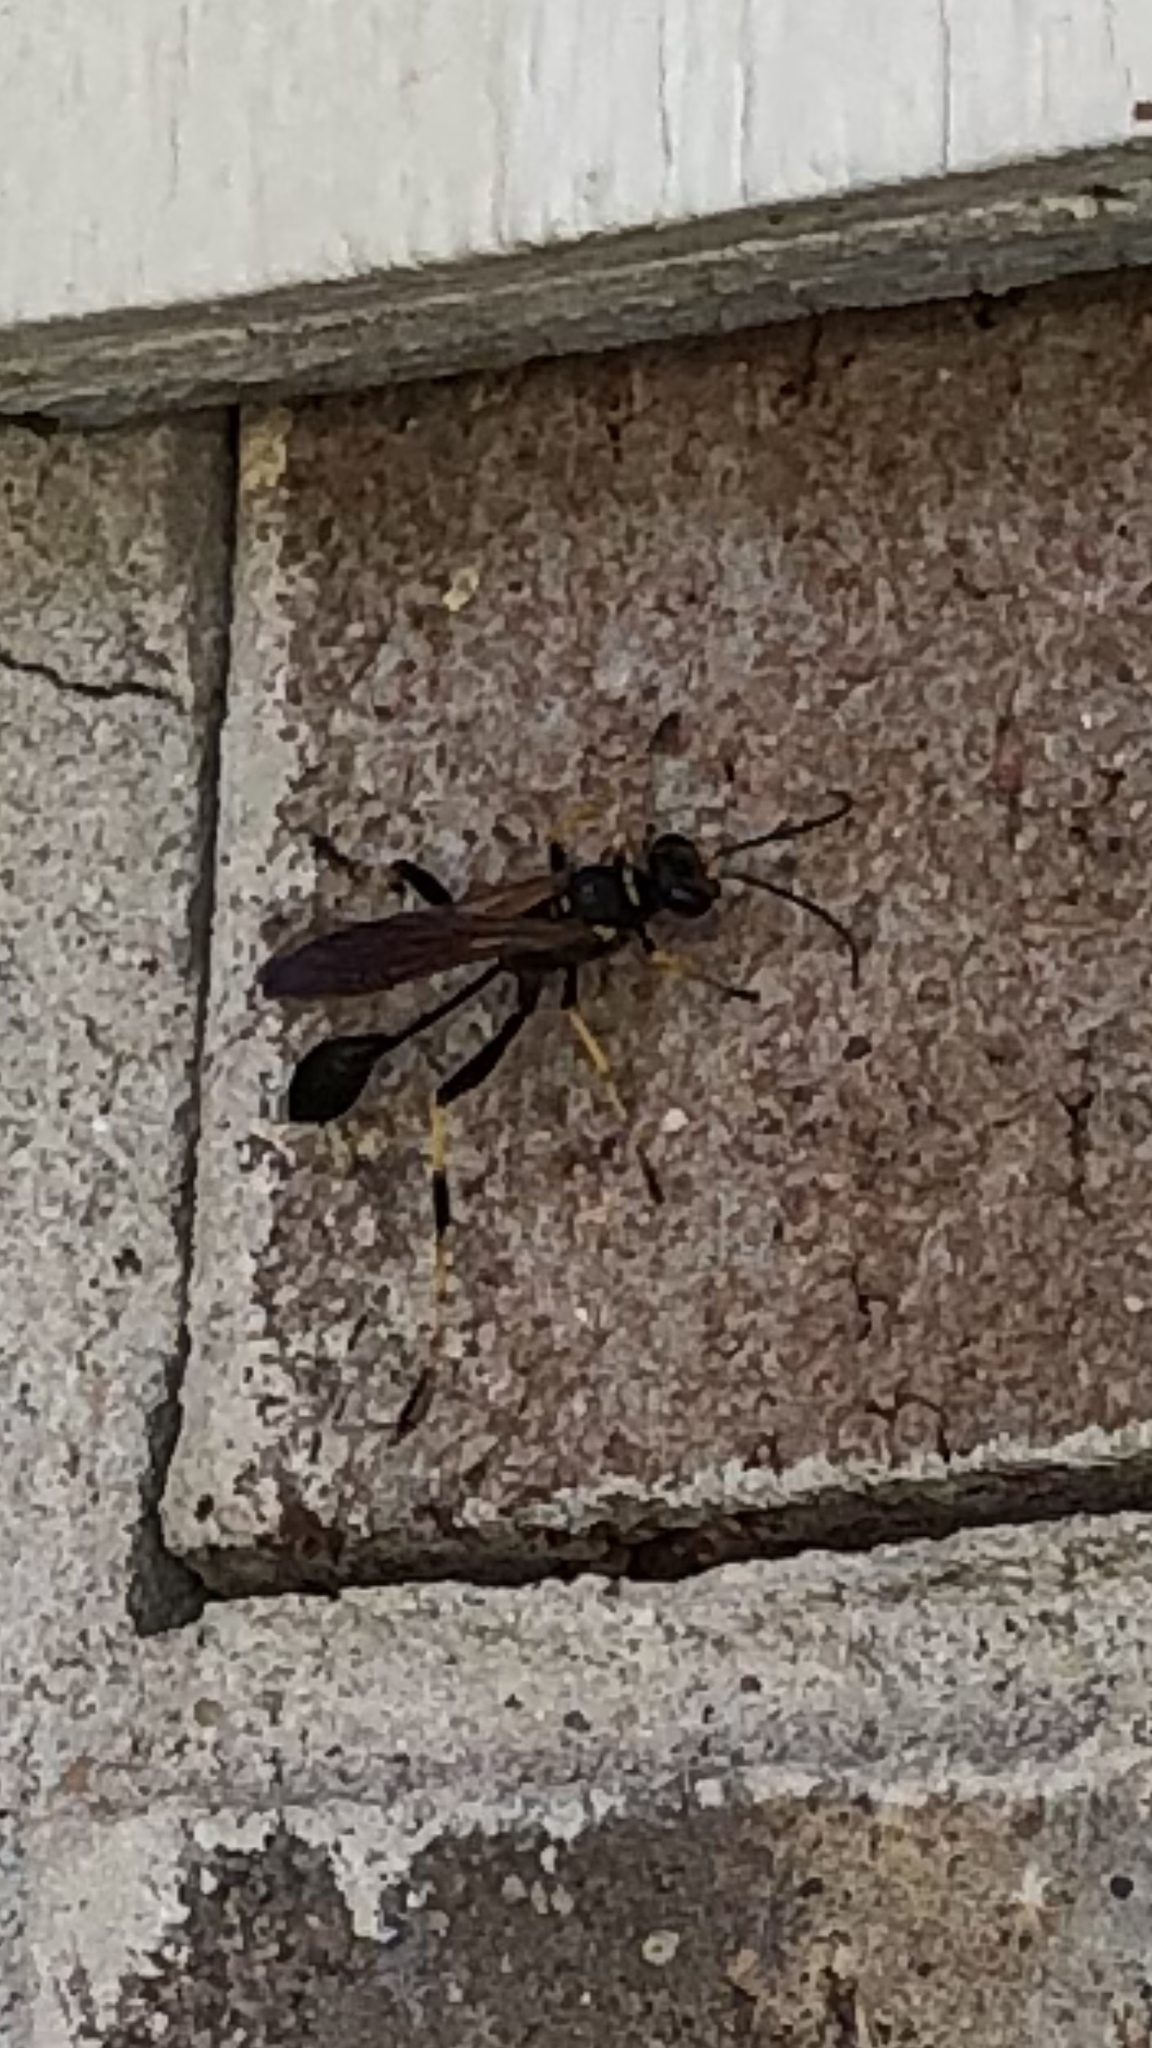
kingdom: Animalia
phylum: Arthropoda
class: Insecta
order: Hymenoptera
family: Sphecidae
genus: Sceliphron
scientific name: Sceliphron caementarium
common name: Mud dauber
